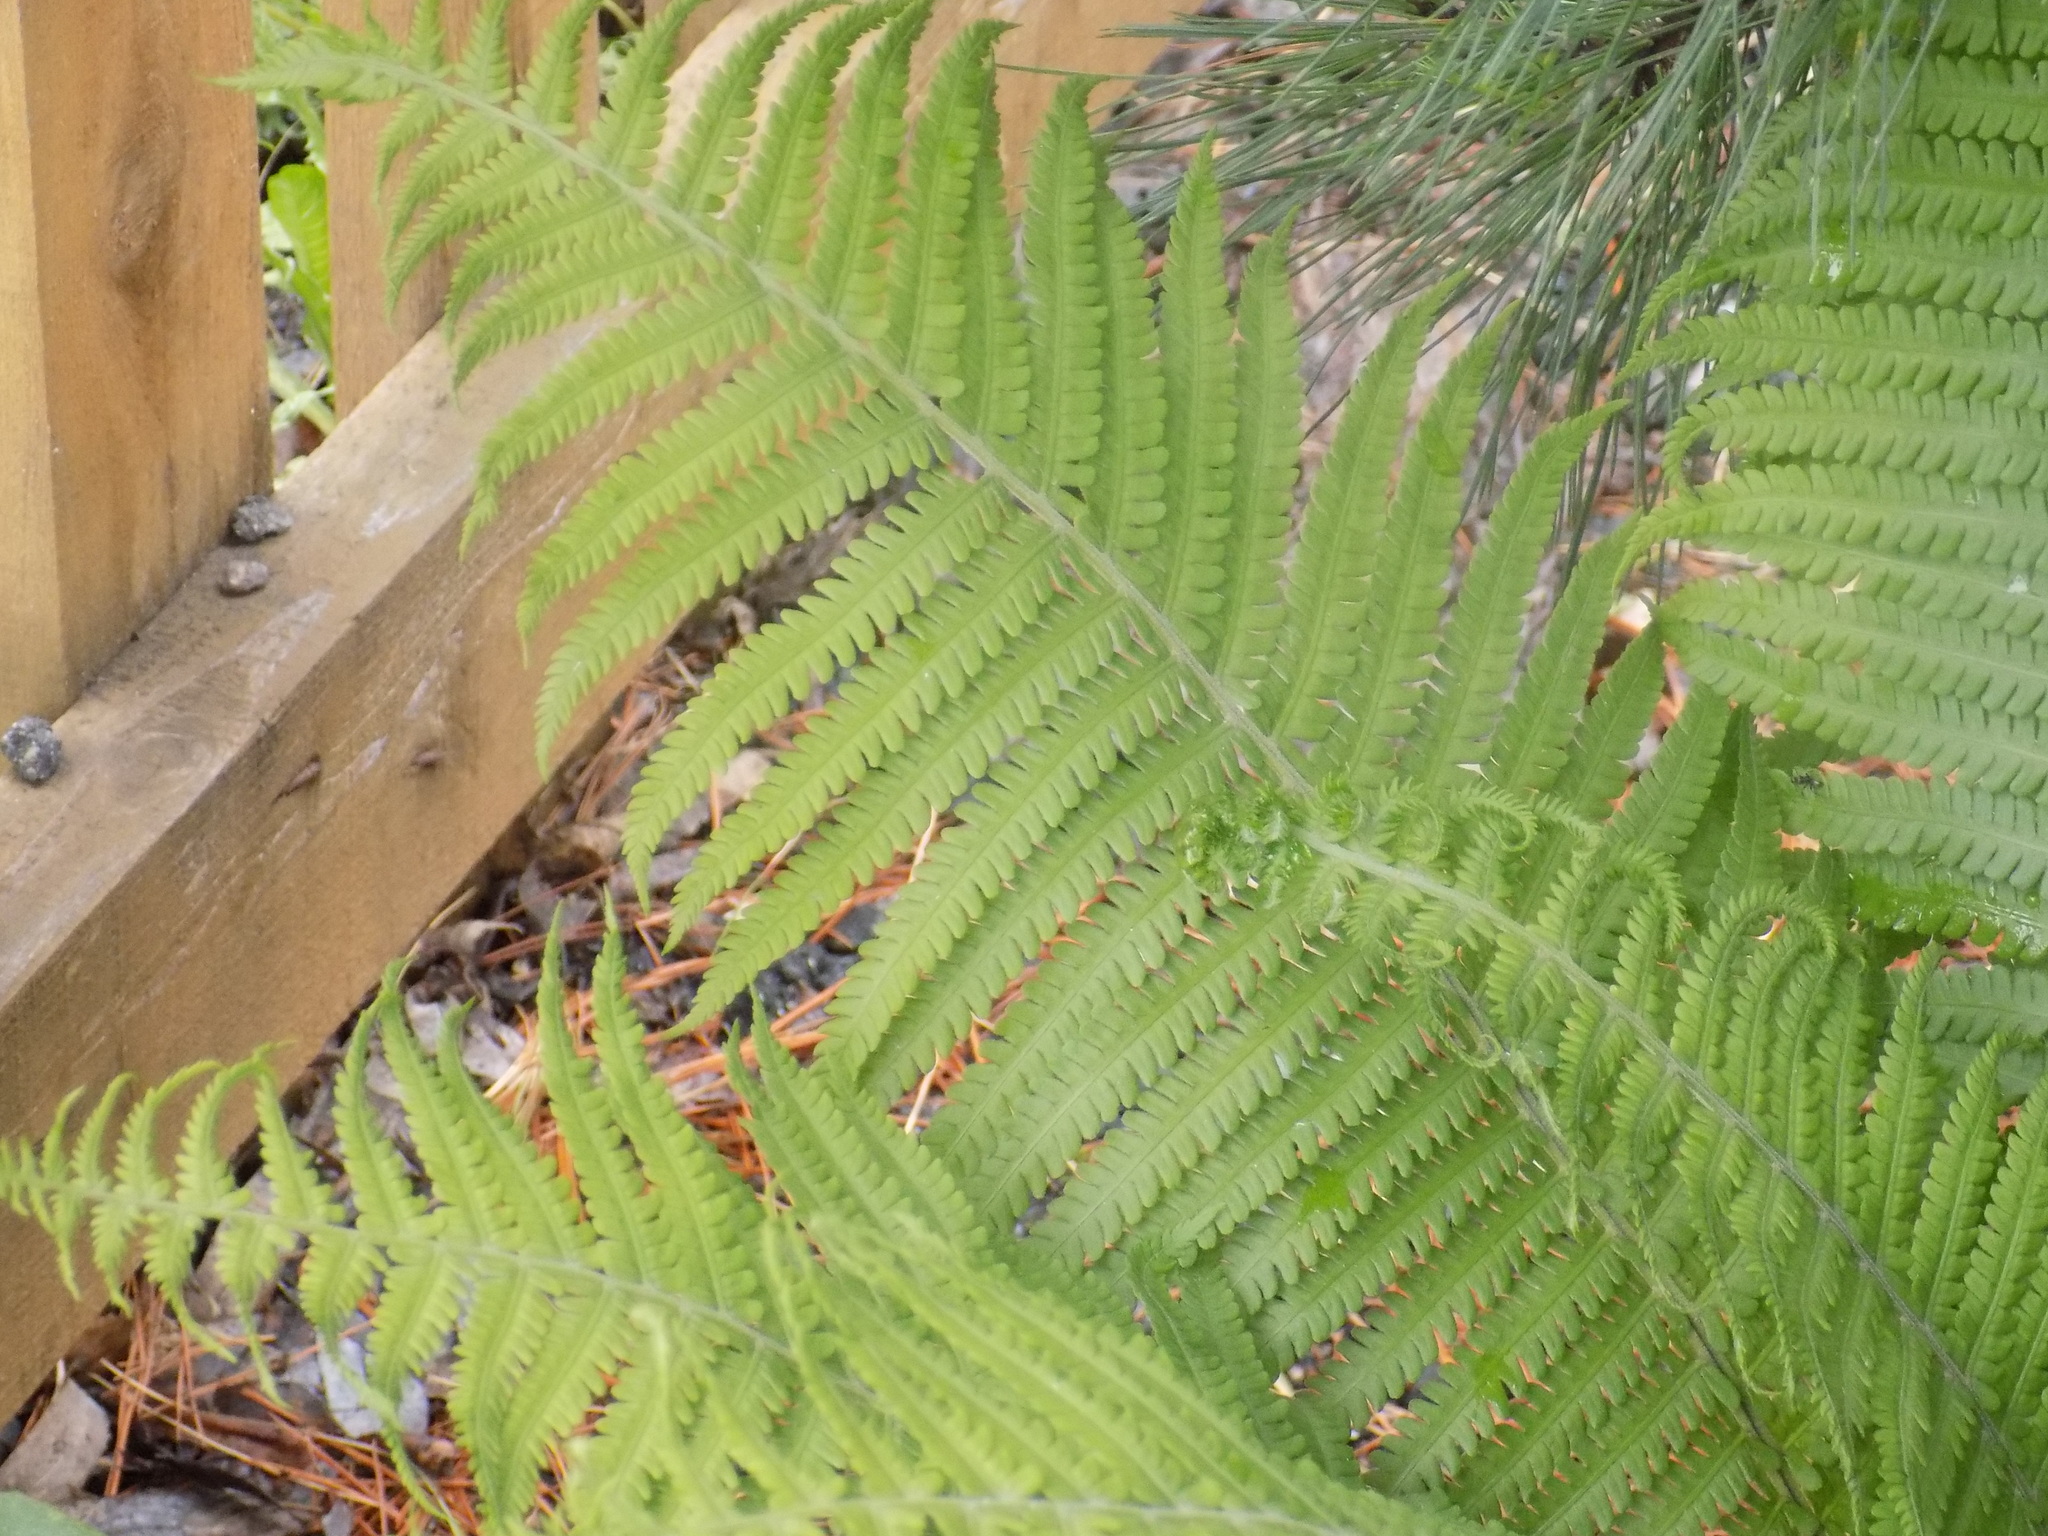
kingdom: Plantae
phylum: Tracheophyta
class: Polypodiopsida
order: Polypodiales
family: Onocleaceae
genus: Matteuccia
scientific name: Matteuccia struthiopteris
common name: Ostrich fern
